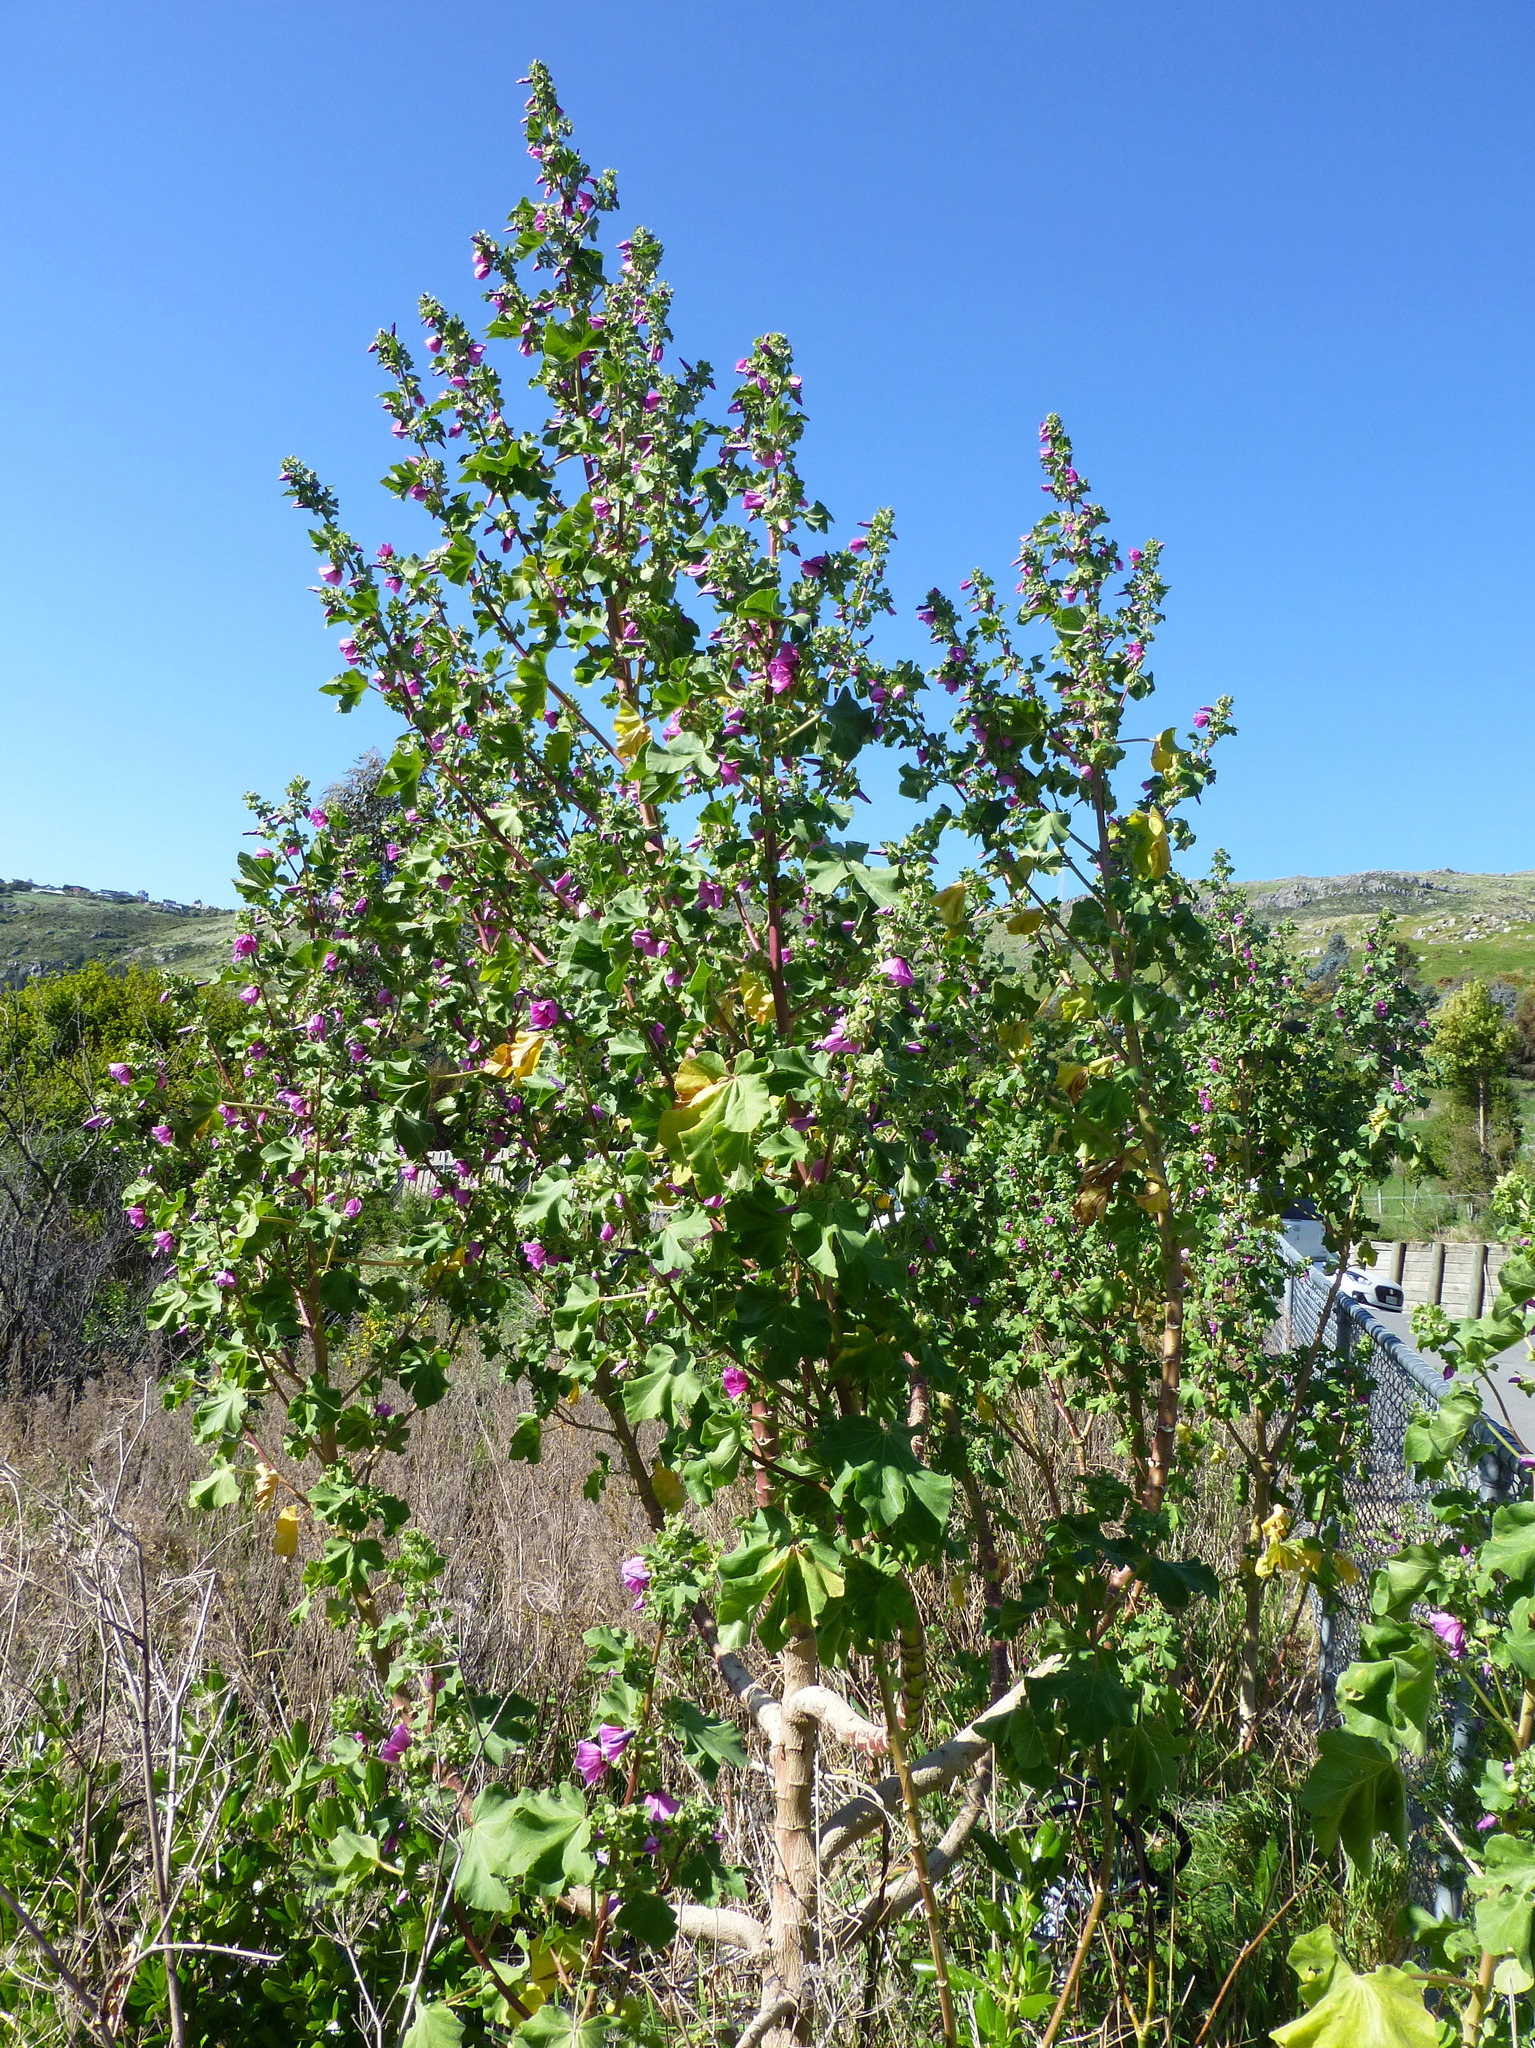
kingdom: Plantae
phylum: Tracheophyta
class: Magnoliopsida
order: Malvales
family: Malvaceae
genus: Malva
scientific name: Malva arborea
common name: Tree mallow
